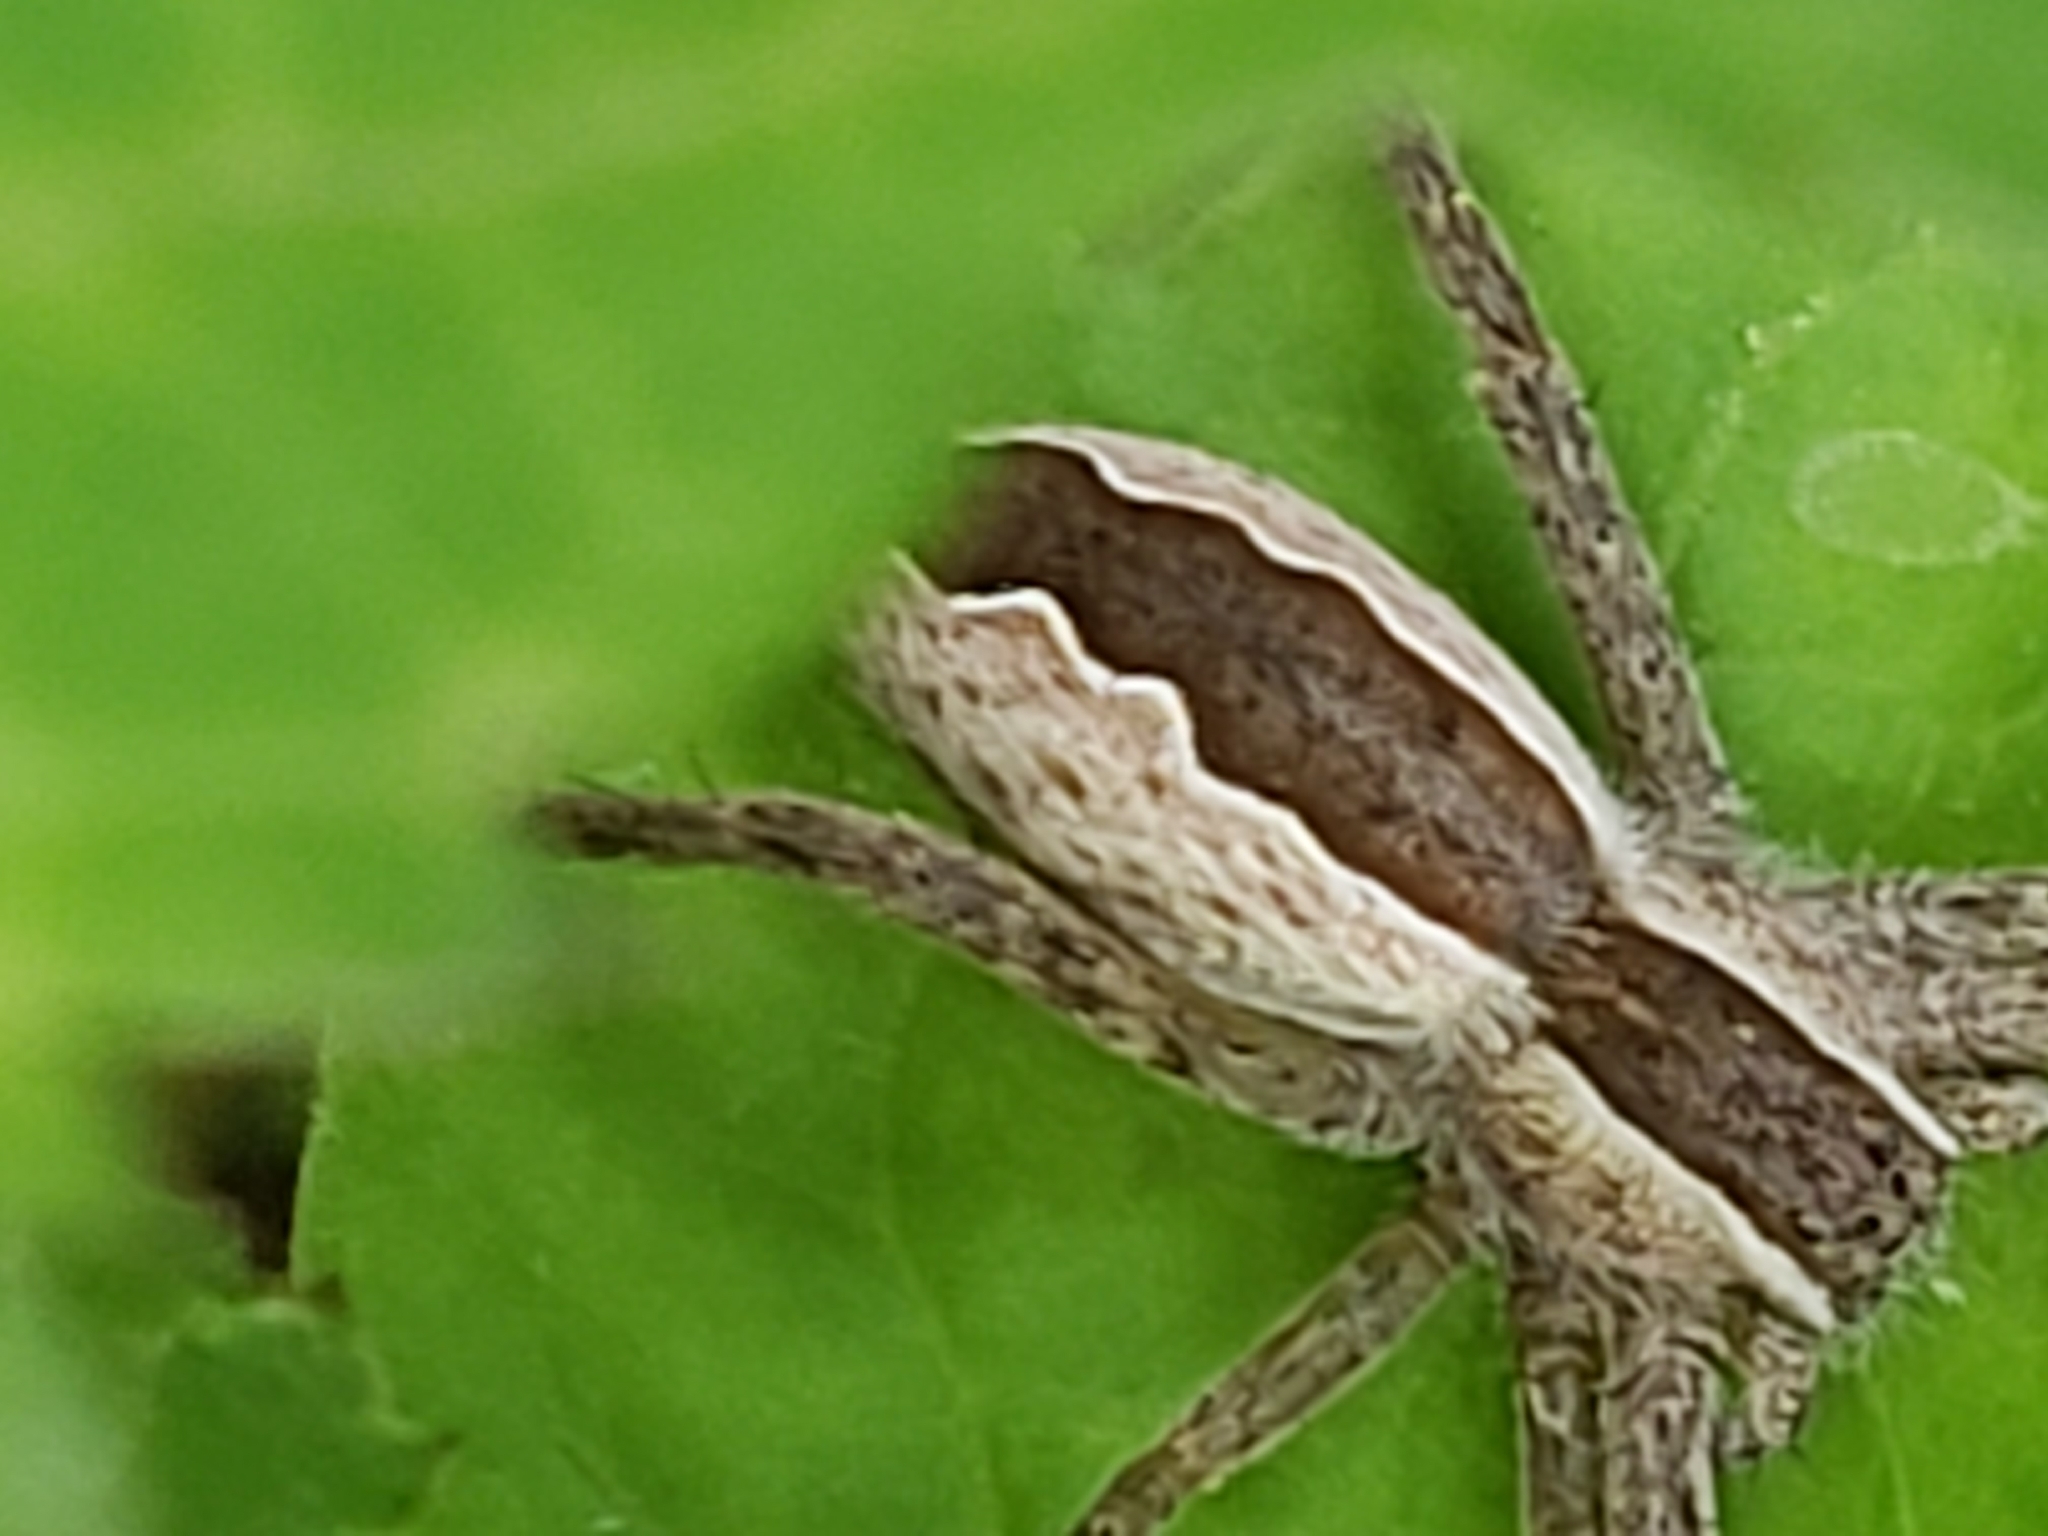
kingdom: Animalia
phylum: Arthropoda
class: Arachnida
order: Araneae
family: Pisauridae
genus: Pisaurina
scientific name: Pisaurina mira
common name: American nursery web spider
